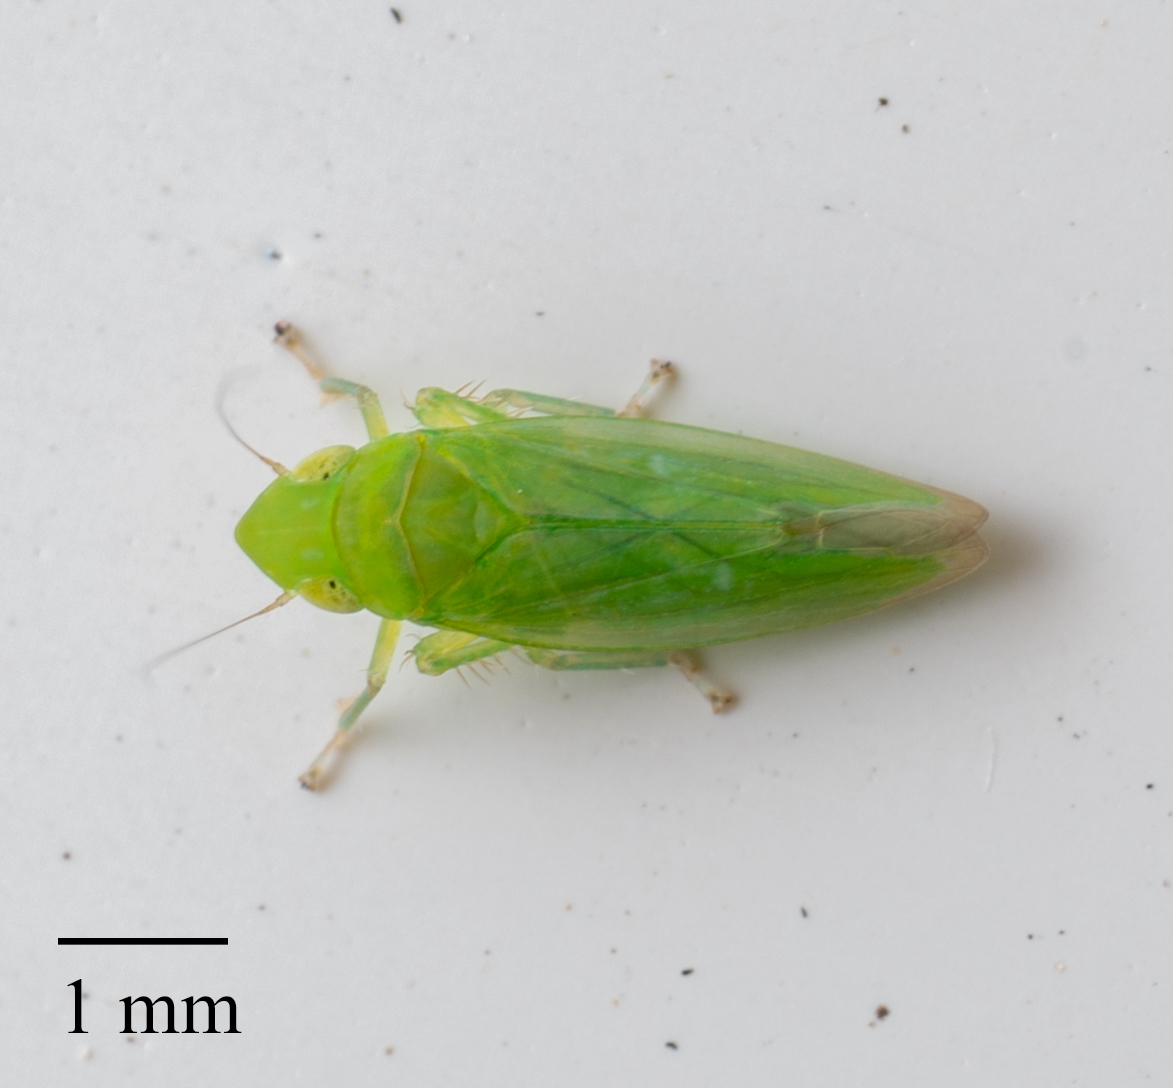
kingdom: Animalia
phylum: Arthropoda
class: Insecta
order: Hemiptera
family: Cicadellidae
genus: Neocoelidia
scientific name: Neocoelidia pallida
